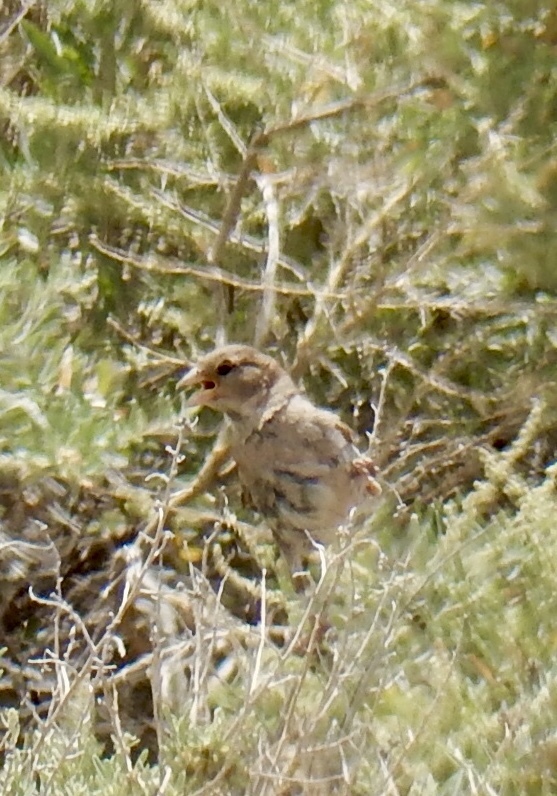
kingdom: Animalia
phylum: Chordata
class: Aves
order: Passeriformes
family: Passeridae
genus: Passer
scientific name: Passer domesticus
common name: House sparrow
